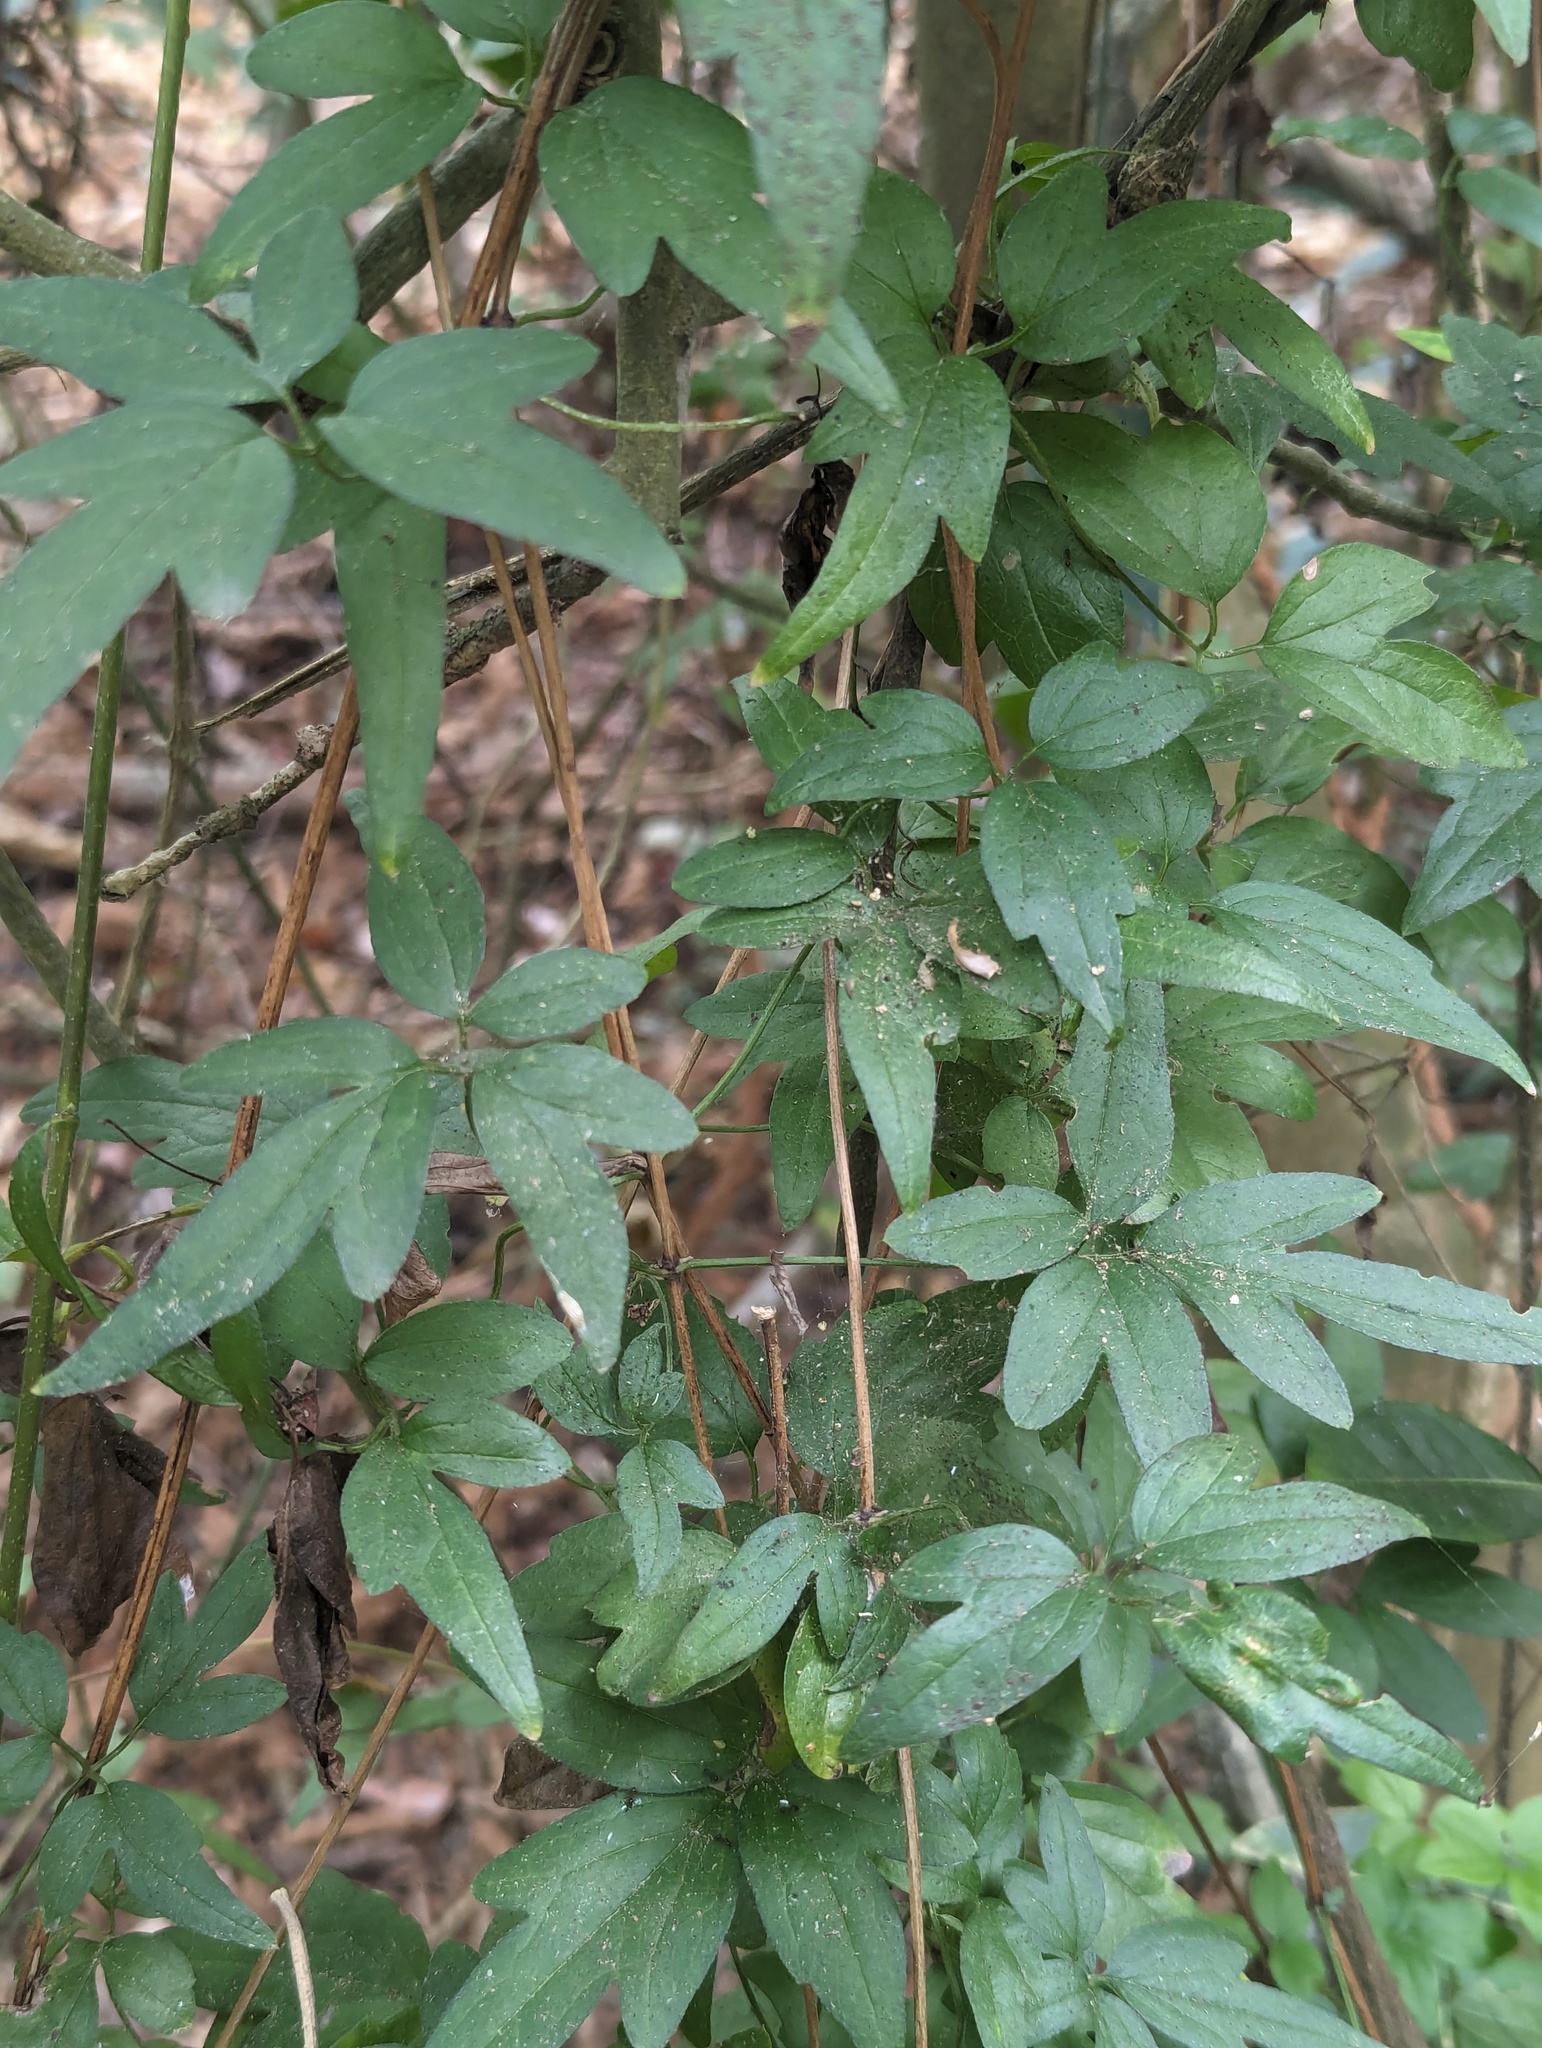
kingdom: Plantae
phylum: Tracheophyta
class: Magnoliopsida
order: Ranunculales
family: Ranunculaceae
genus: Clematis
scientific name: Clematis formosana
